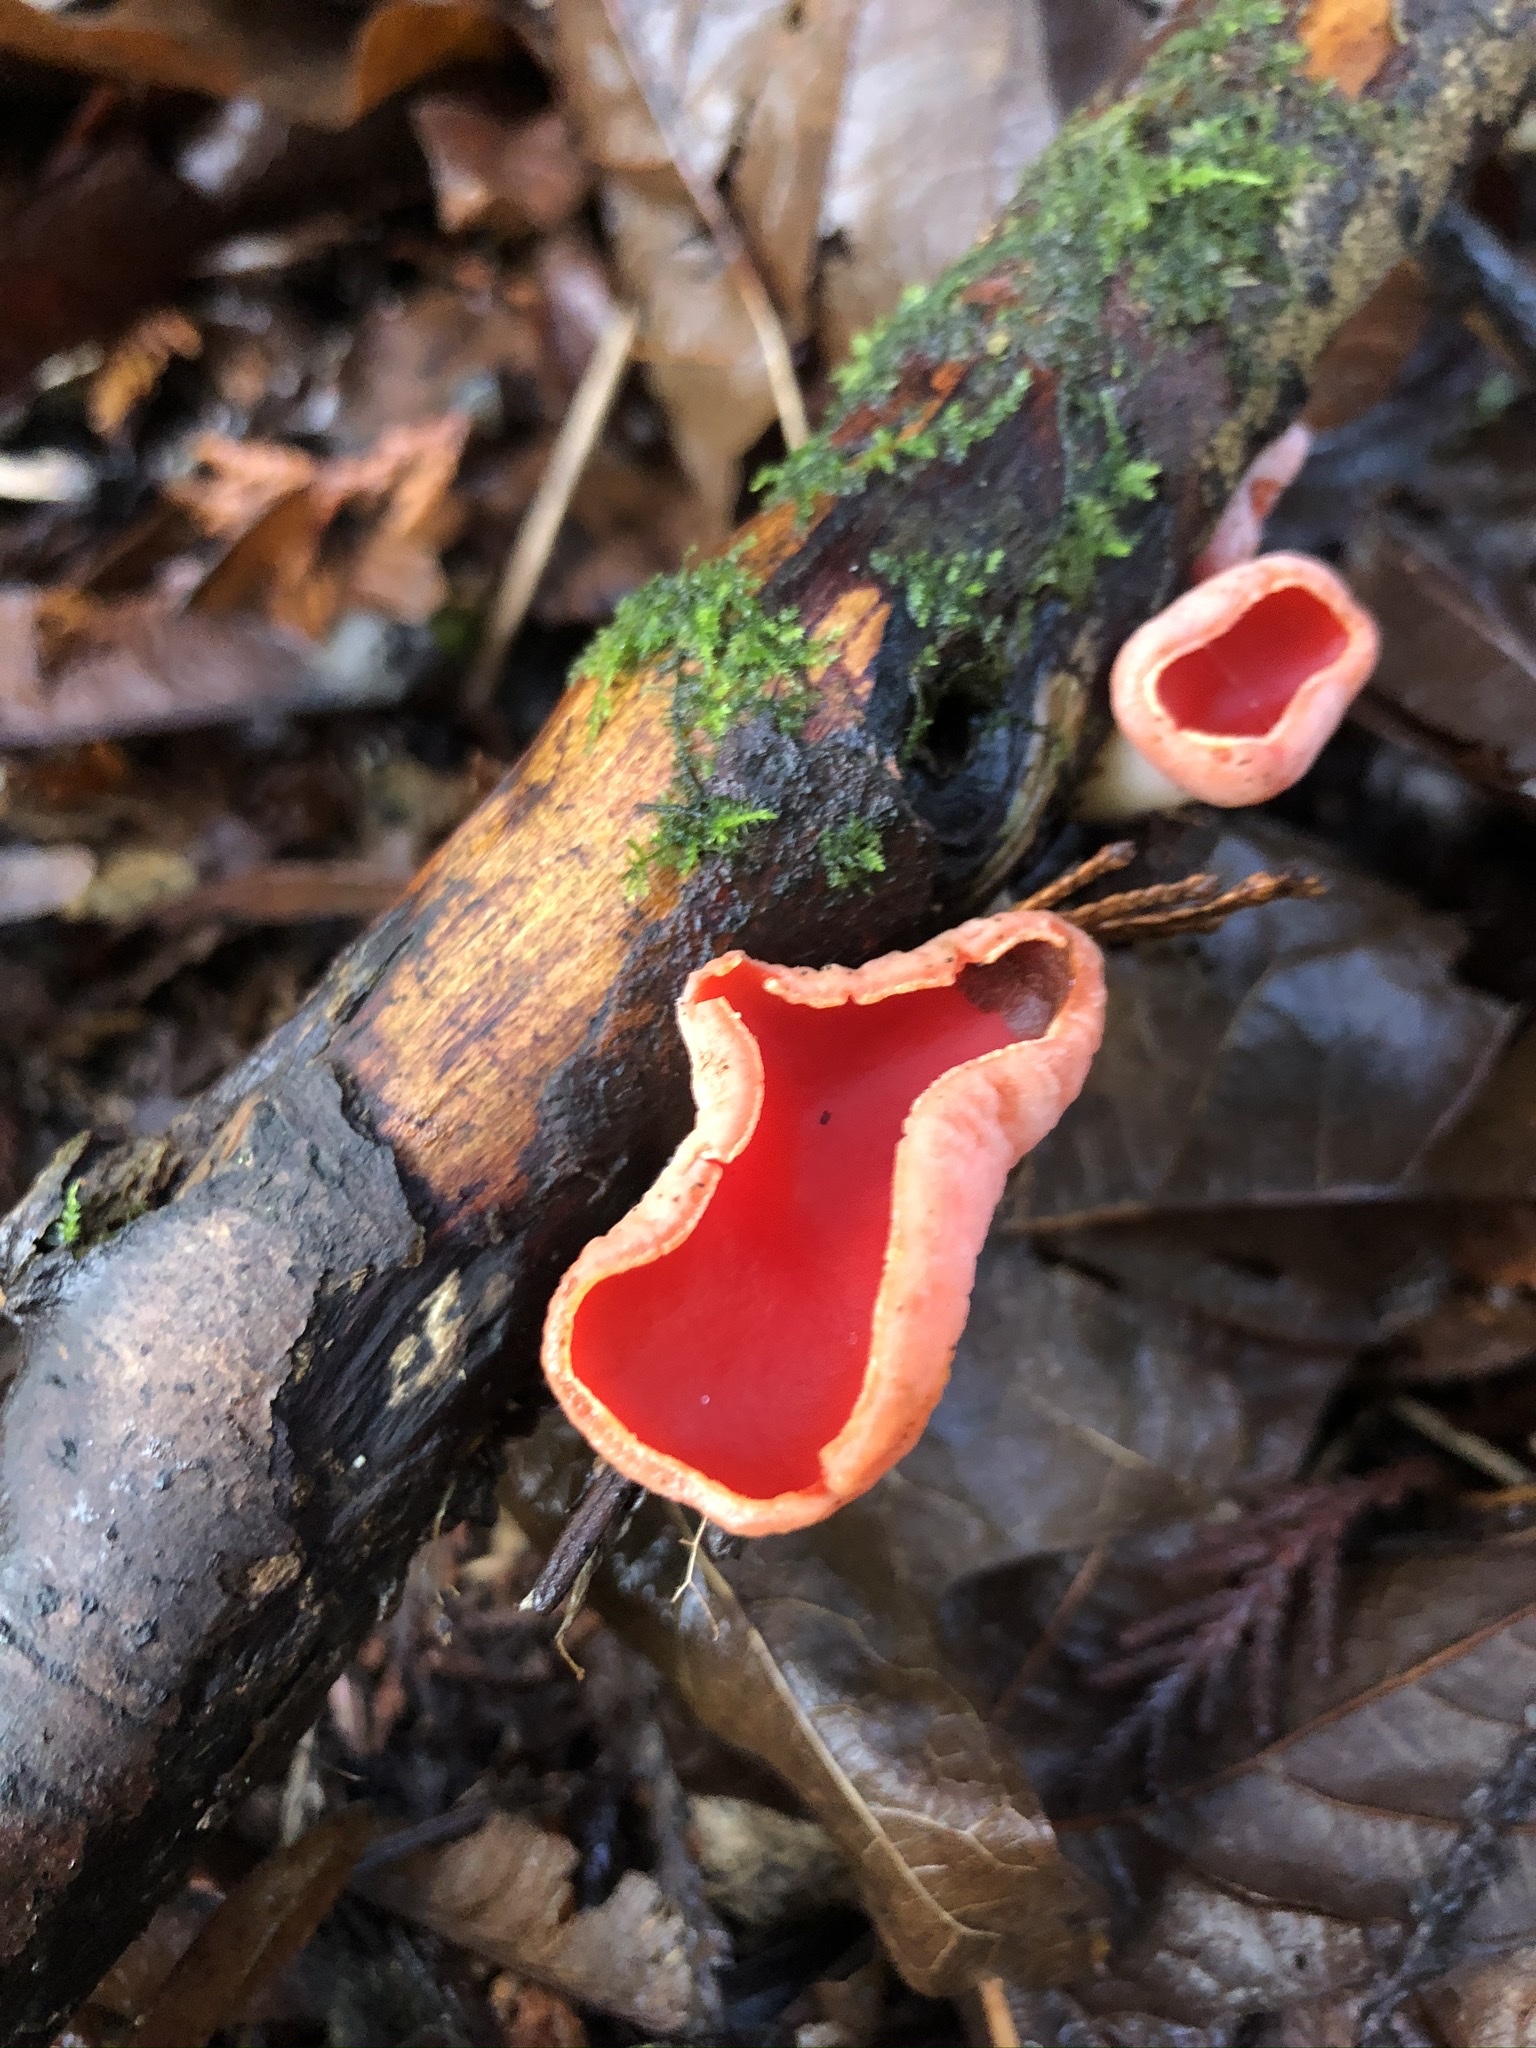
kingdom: Fungi
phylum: Ascomycota
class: Pezizomycetes
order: Pezizales
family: Sarcoscyphaceae
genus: Sarcoscypha
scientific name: Sarcoscypha coccinea
